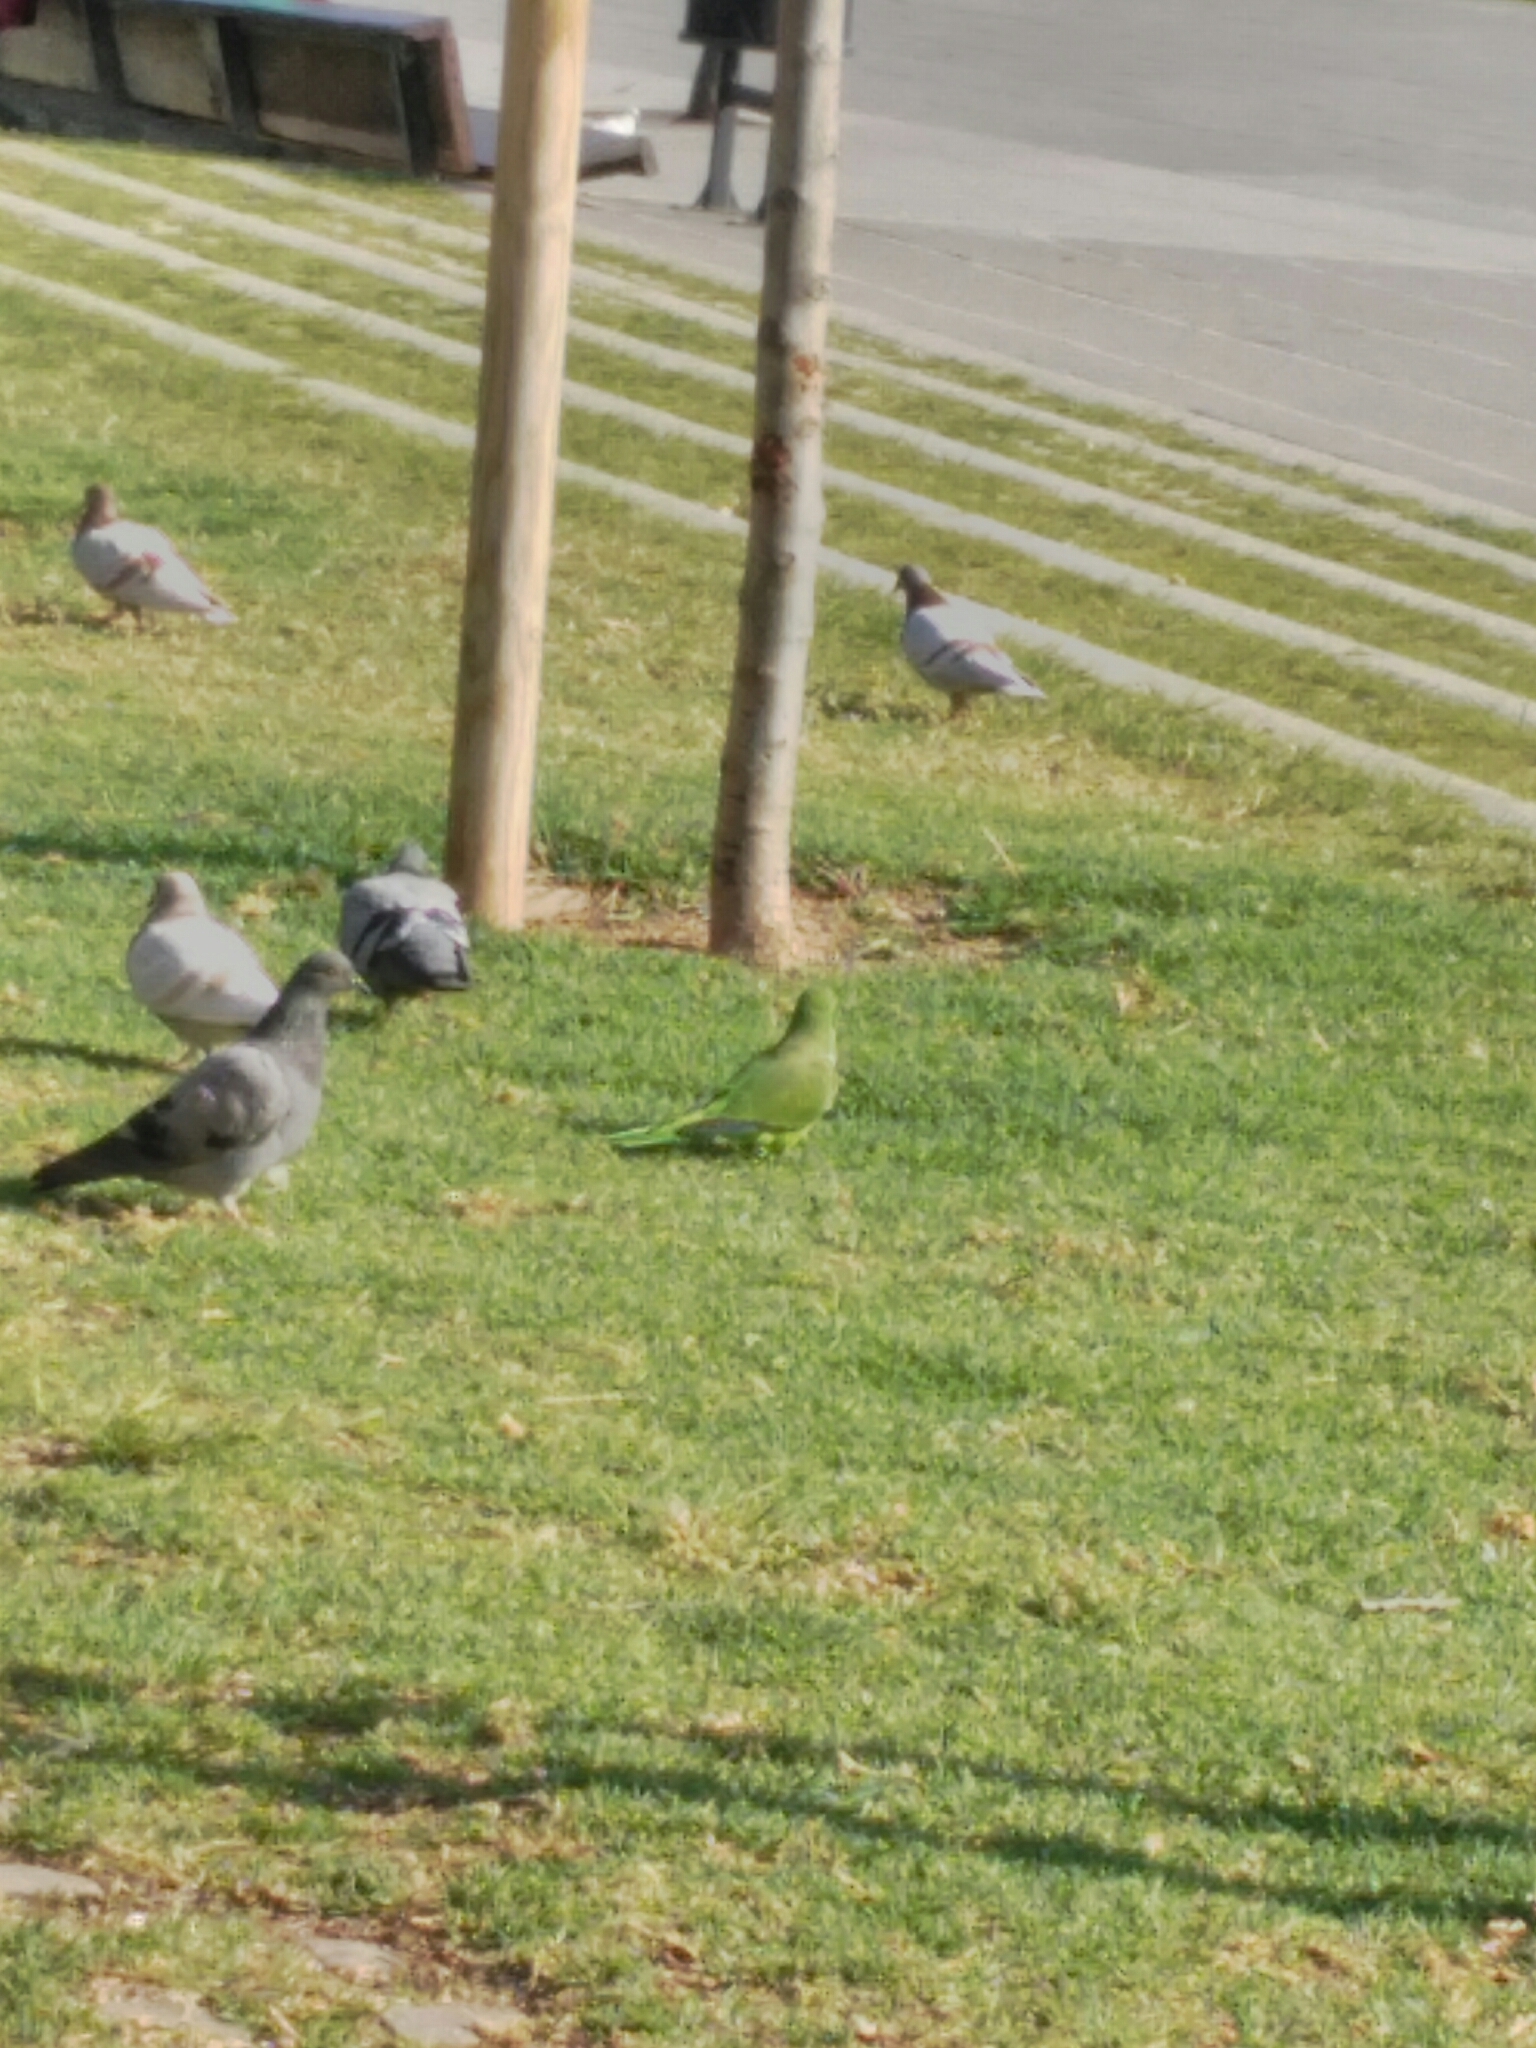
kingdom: Animalia
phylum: Chordata
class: Aves
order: Psittaciformes
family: Psittacidae
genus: Myiopsitta
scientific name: Myiopsitta monachus
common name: Monk parakeet
